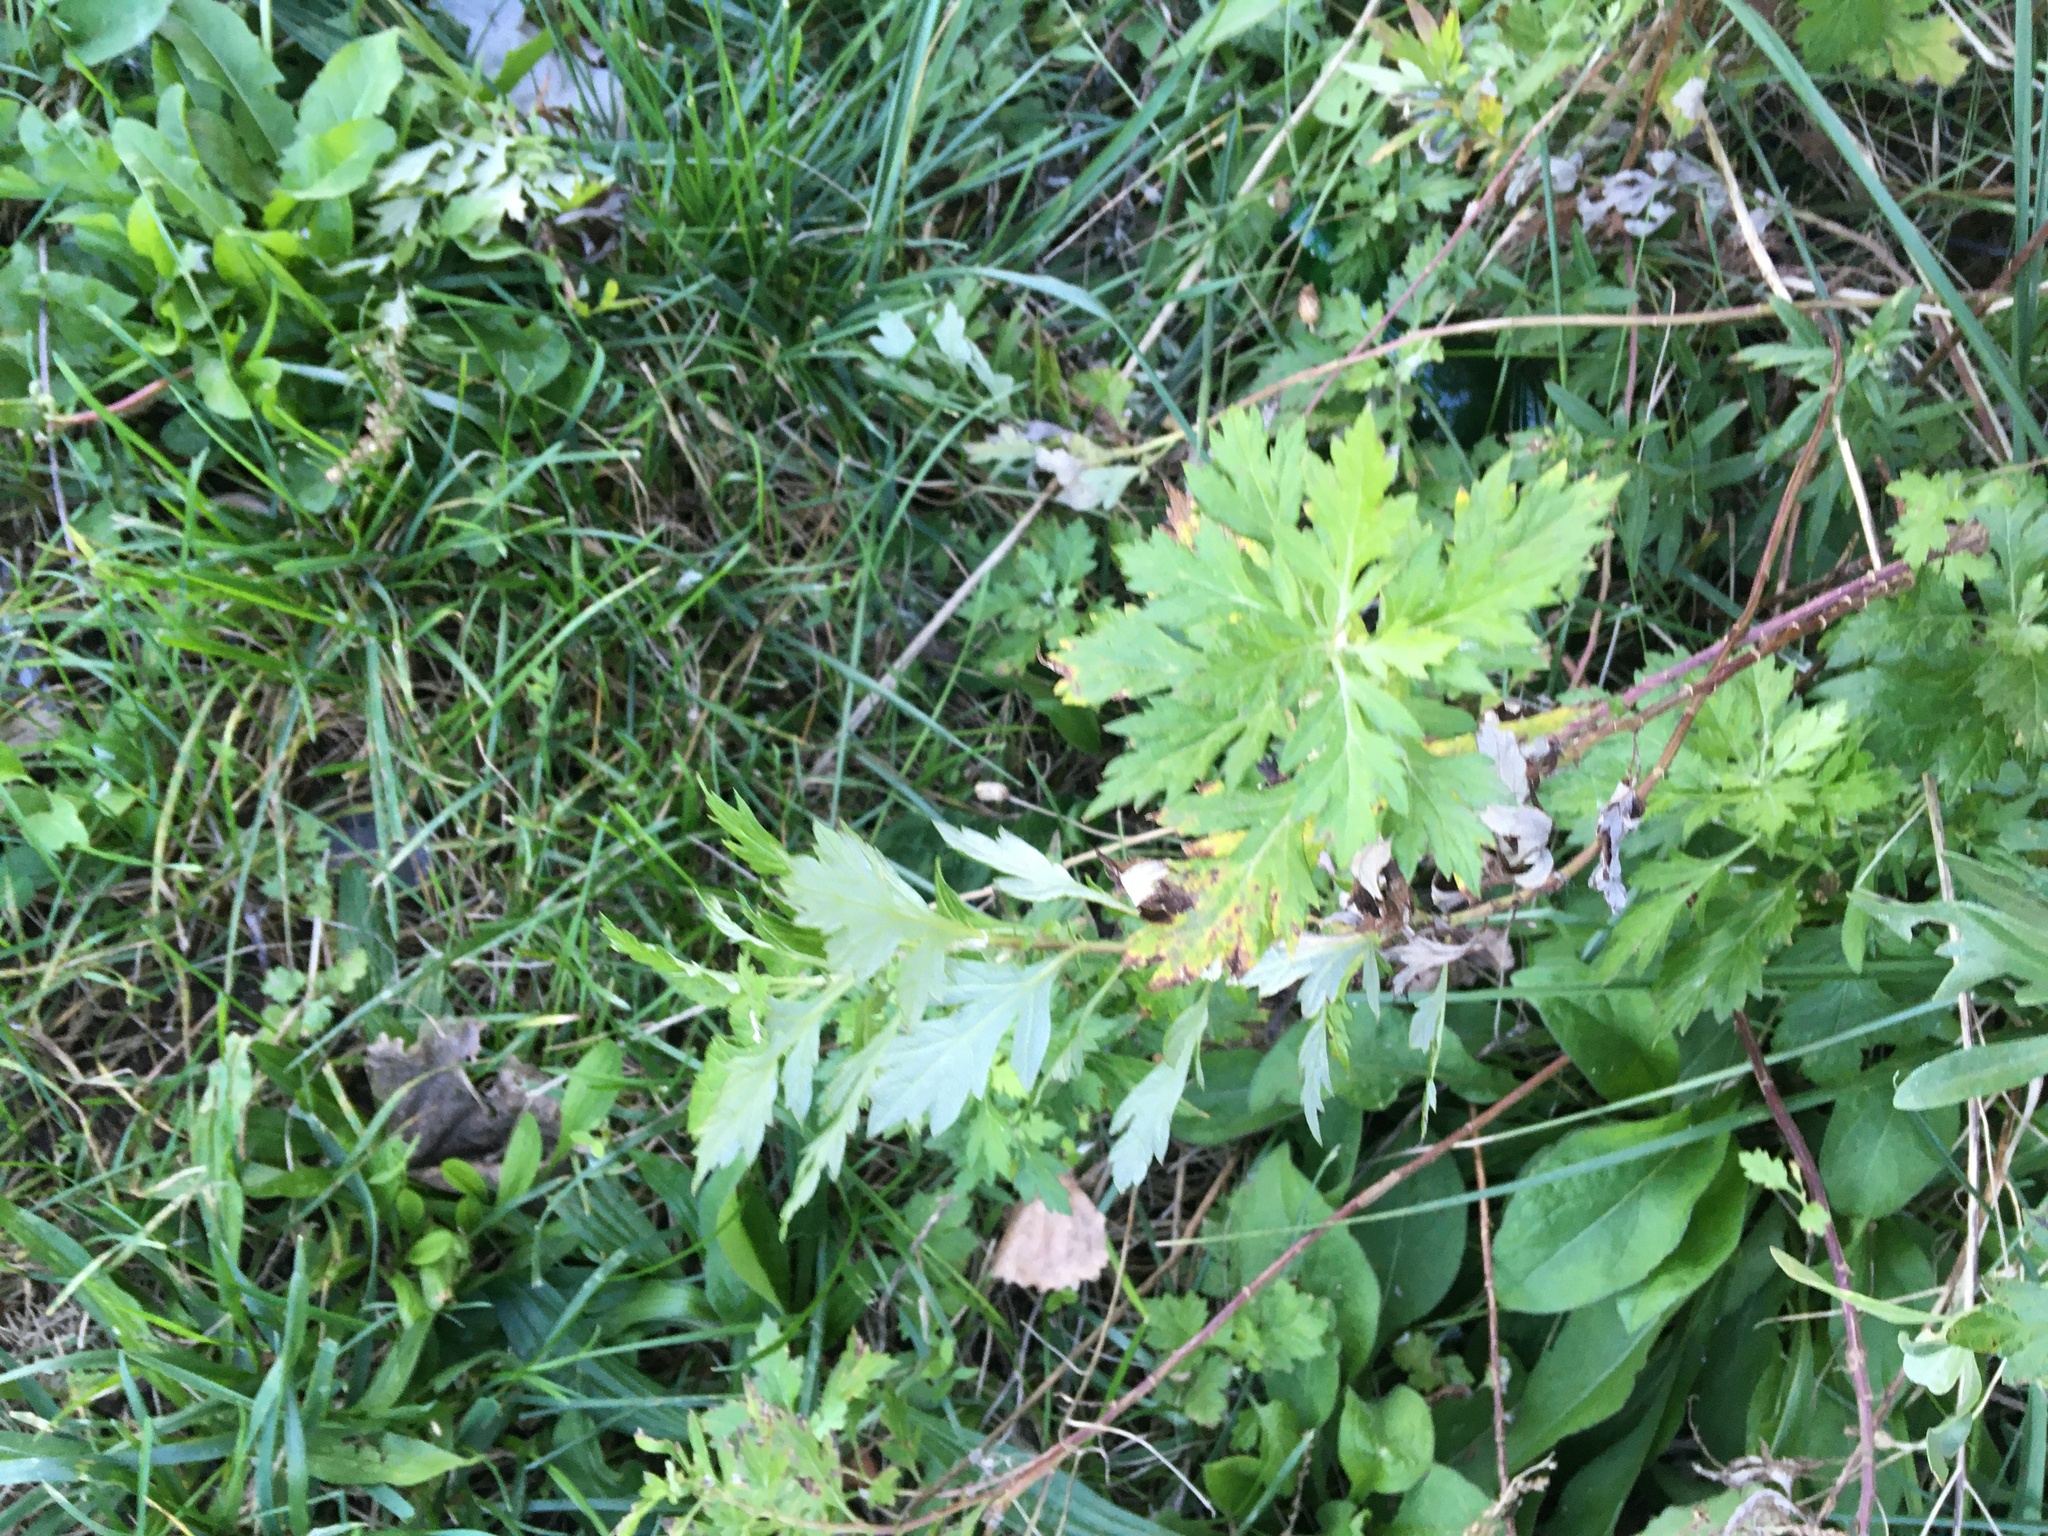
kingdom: Plantae
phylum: Tracheophyta
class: Magnoliopsida
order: Asterales
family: Asteraceae
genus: Artemisia
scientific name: Artemisia vulgaris
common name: Mugwort
